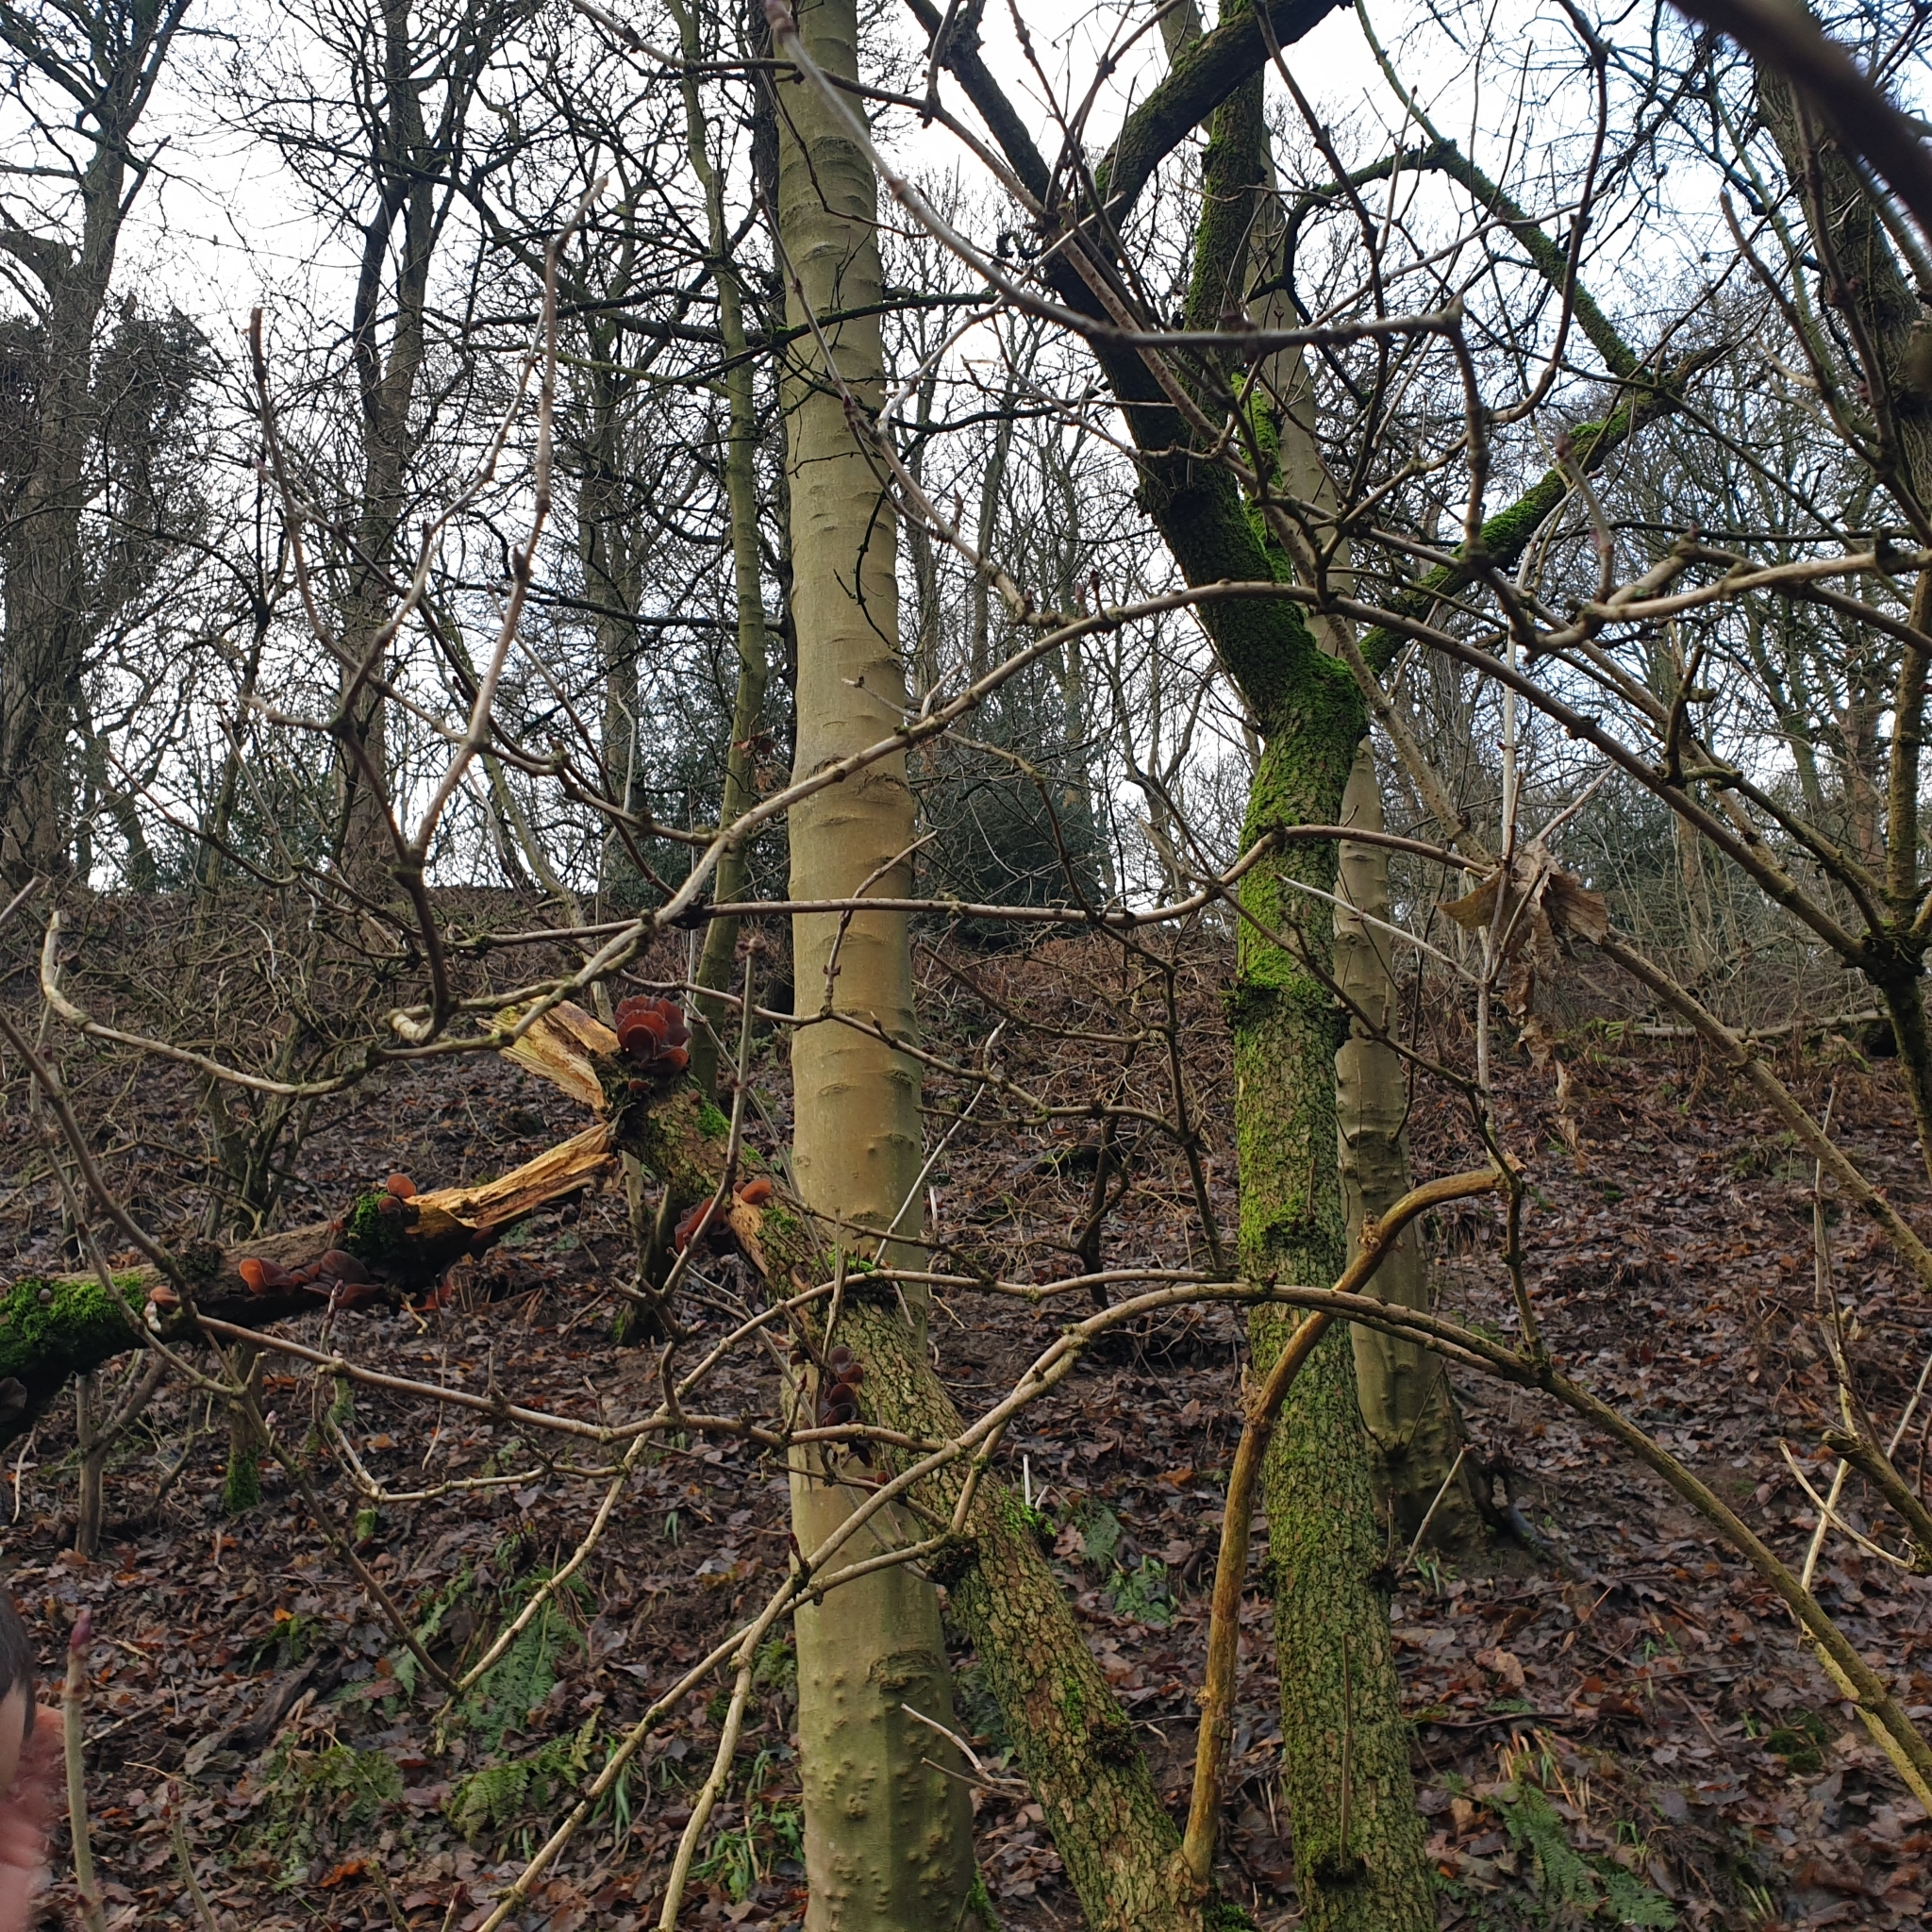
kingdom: Fungi
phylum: Basidiomycota
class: Agaricomycetes
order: Auriculariales
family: Auriculariaceae
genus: Auricularia
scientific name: Auricularia auricula-judae
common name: Jelly ear
